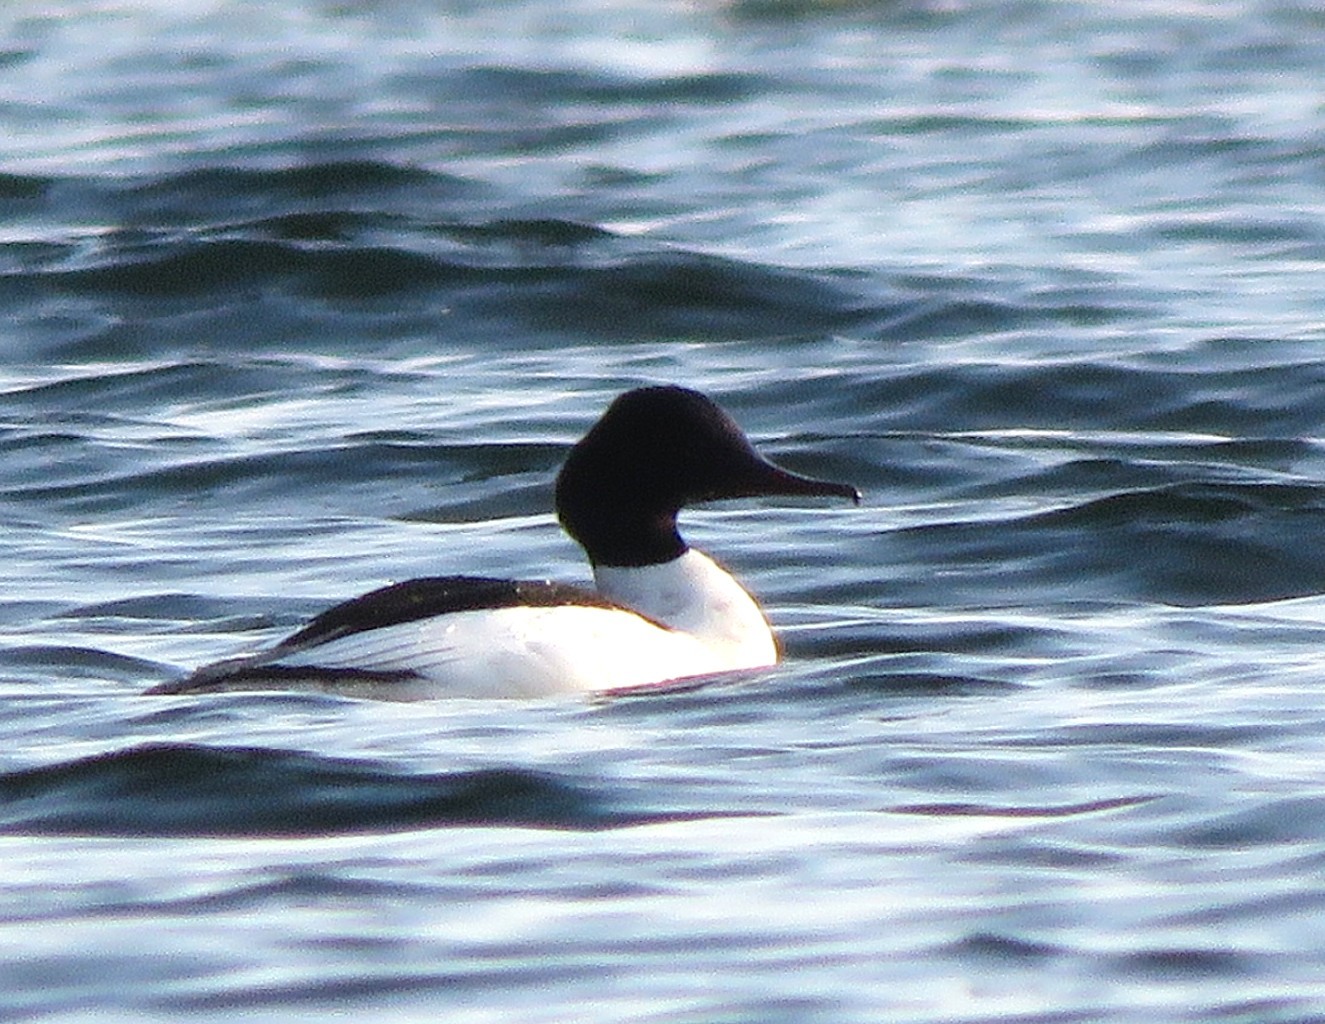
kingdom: Animalia
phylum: Chordata
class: Aves
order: Anseriformes
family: Anatidae
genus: Mergus
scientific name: Mergus merganser
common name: Common merganser
